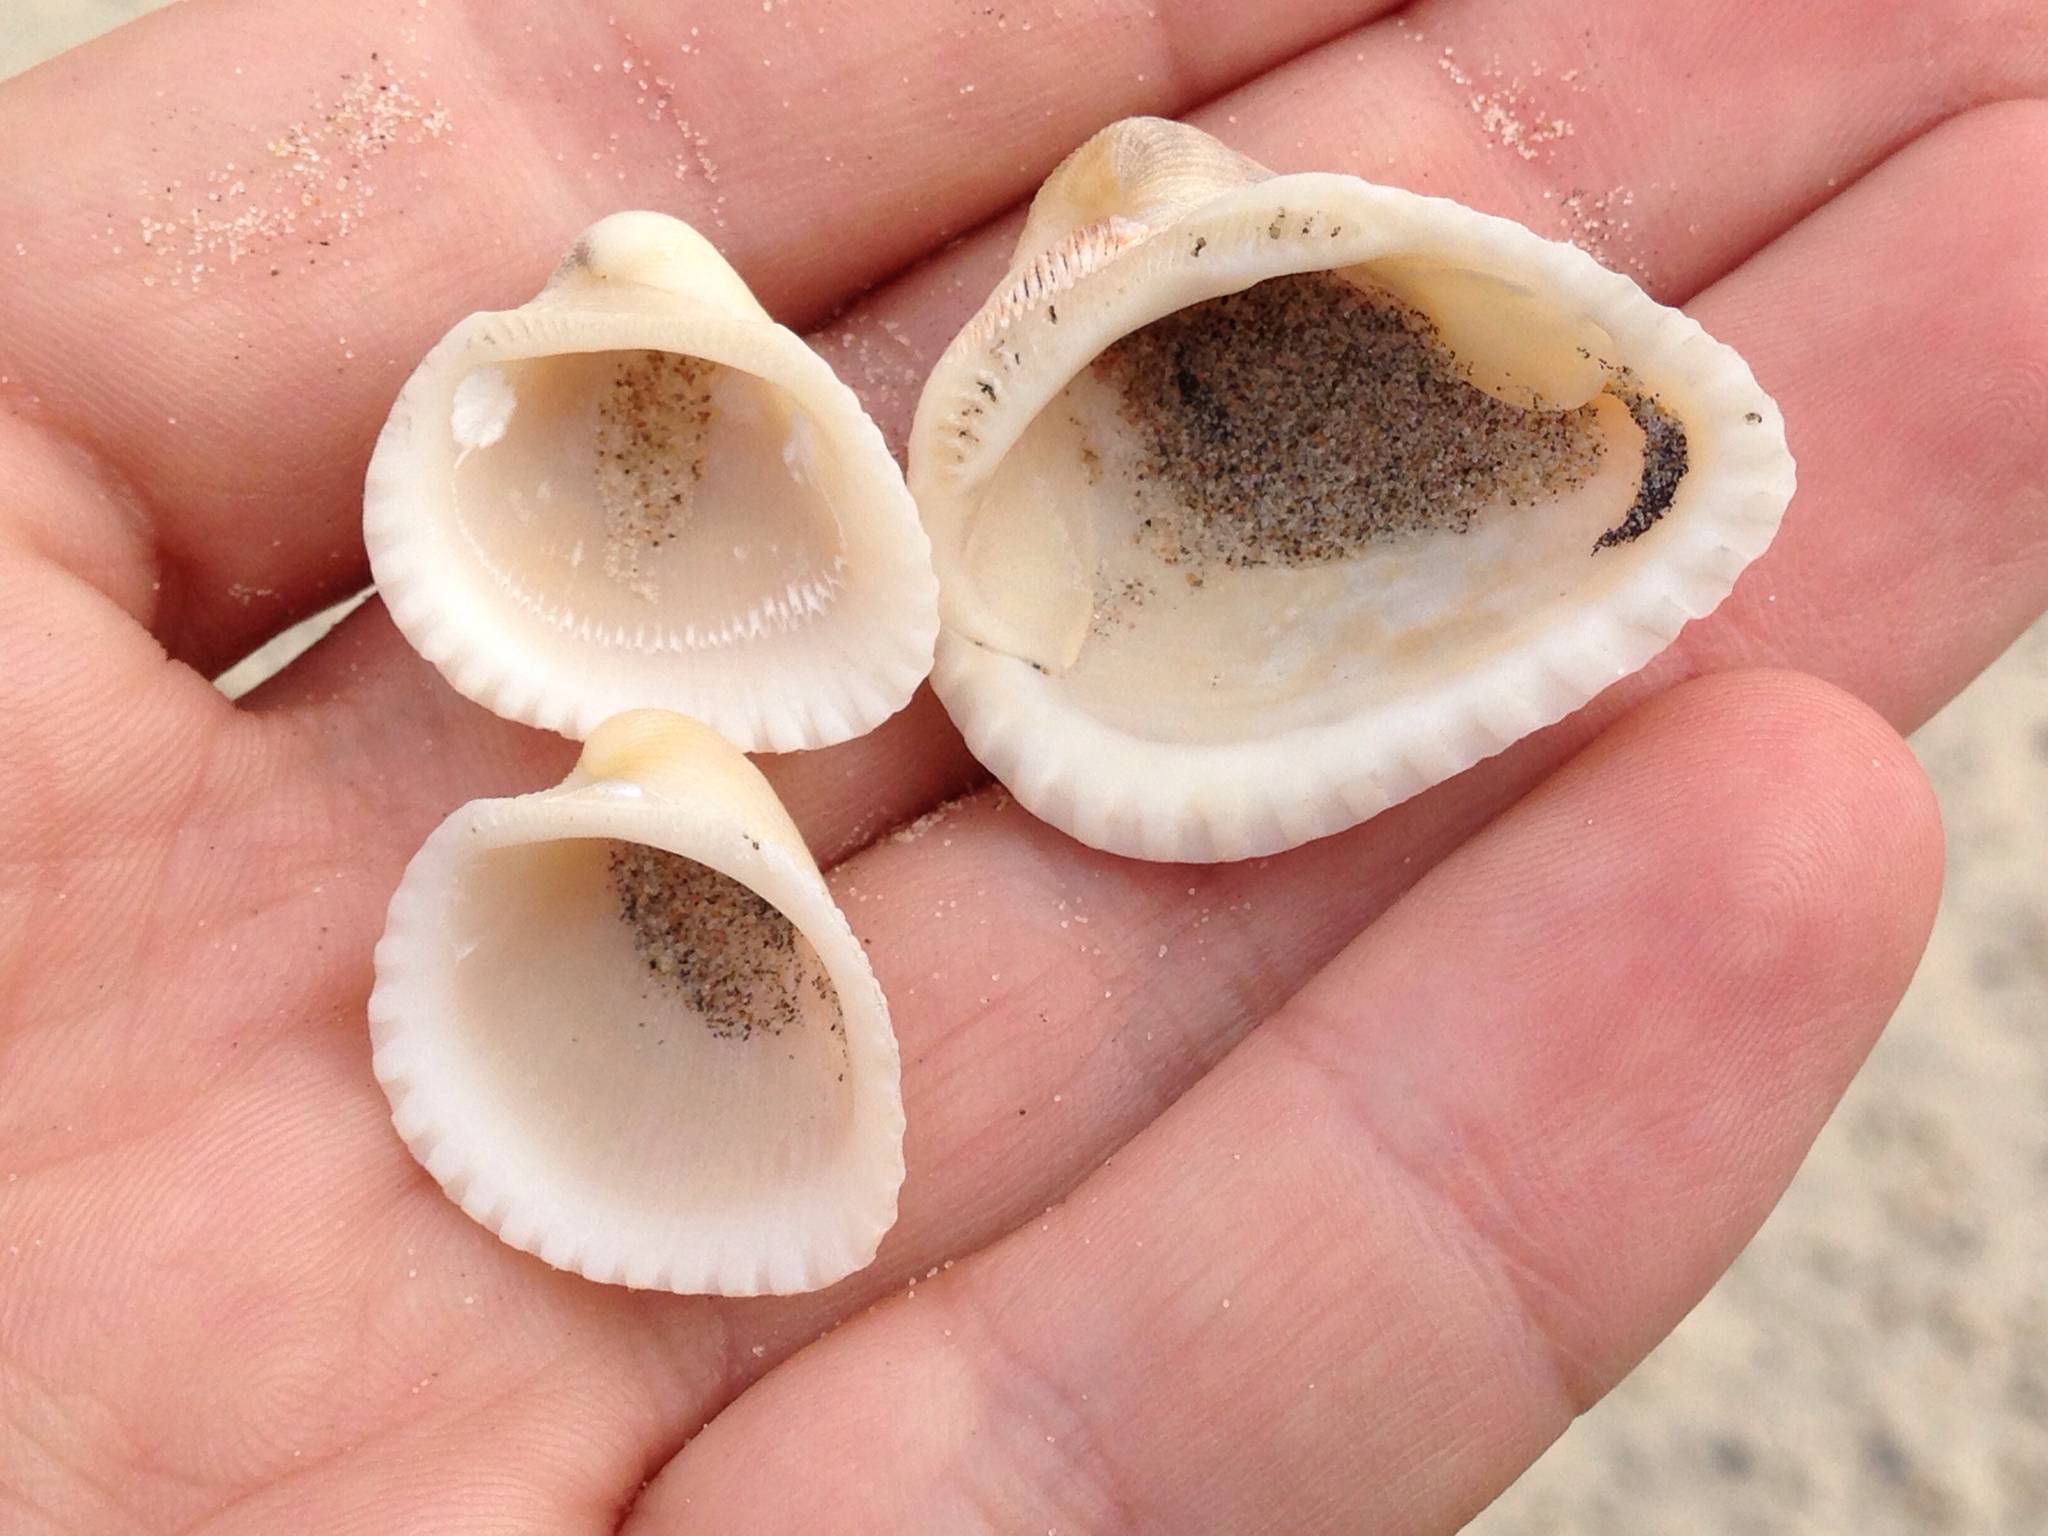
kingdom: Animalia
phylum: Mollusca
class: Bivalvia
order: Arcida
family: Arcidae
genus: Anadara
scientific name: Anadara chemnitzii
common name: Chemnitz's triangular ark
